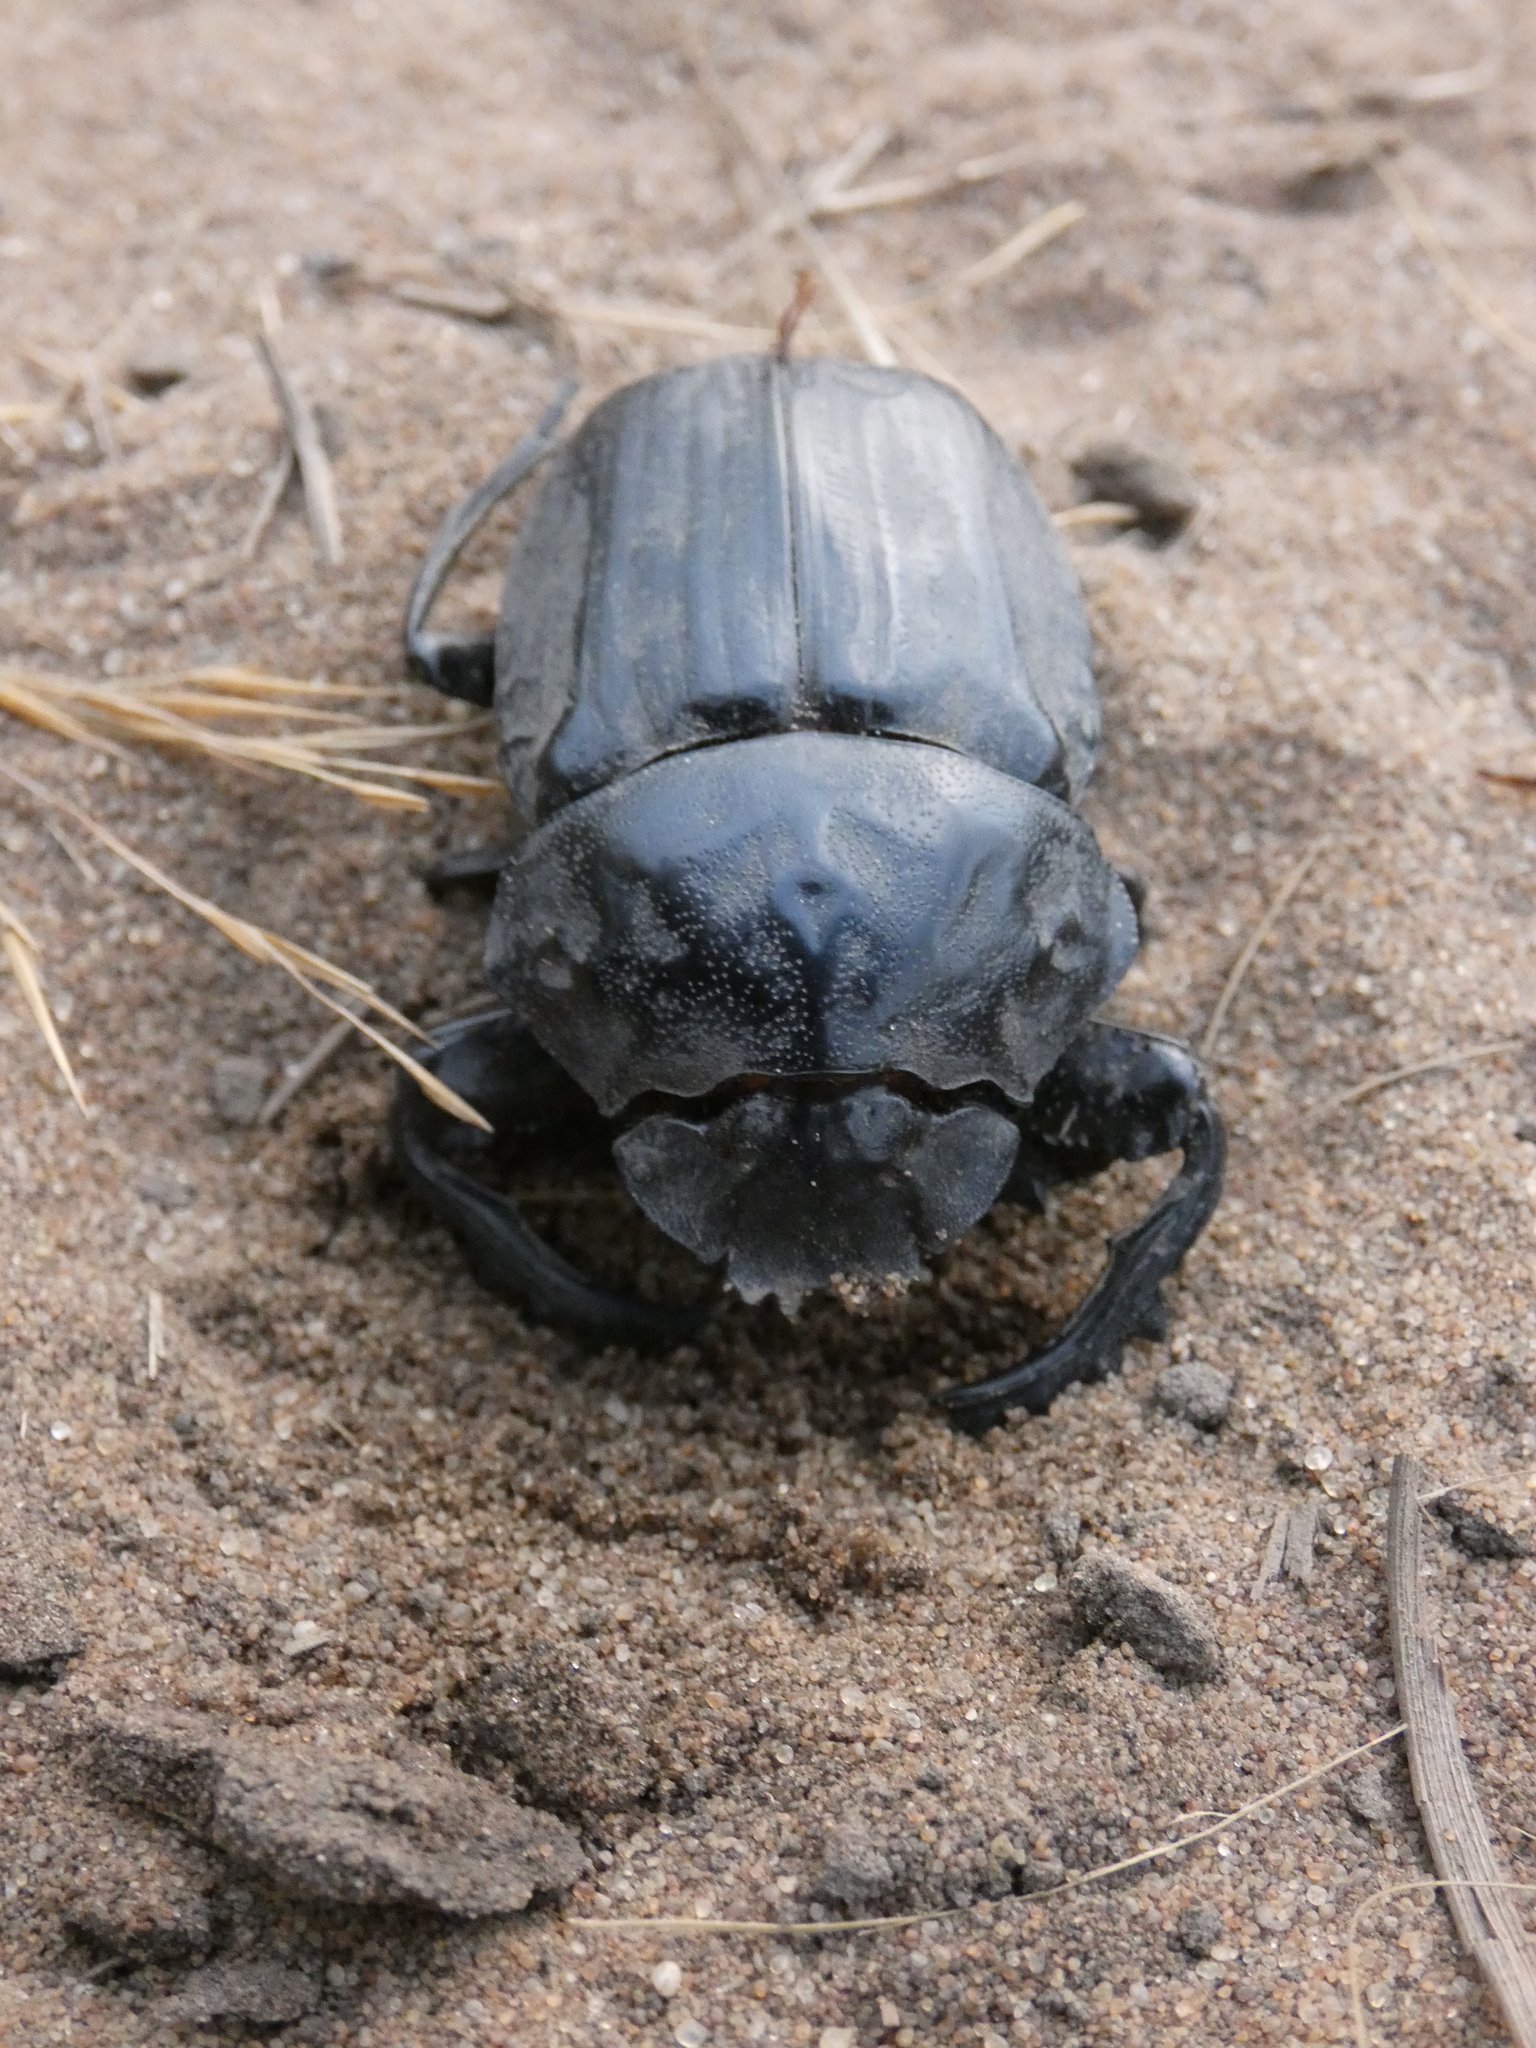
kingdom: Animalia
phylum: Arthropoda
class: Insecta
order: Coleoptera
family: Scarabaeidae
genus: Pachylomera
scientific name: Pachylomera femoralis
